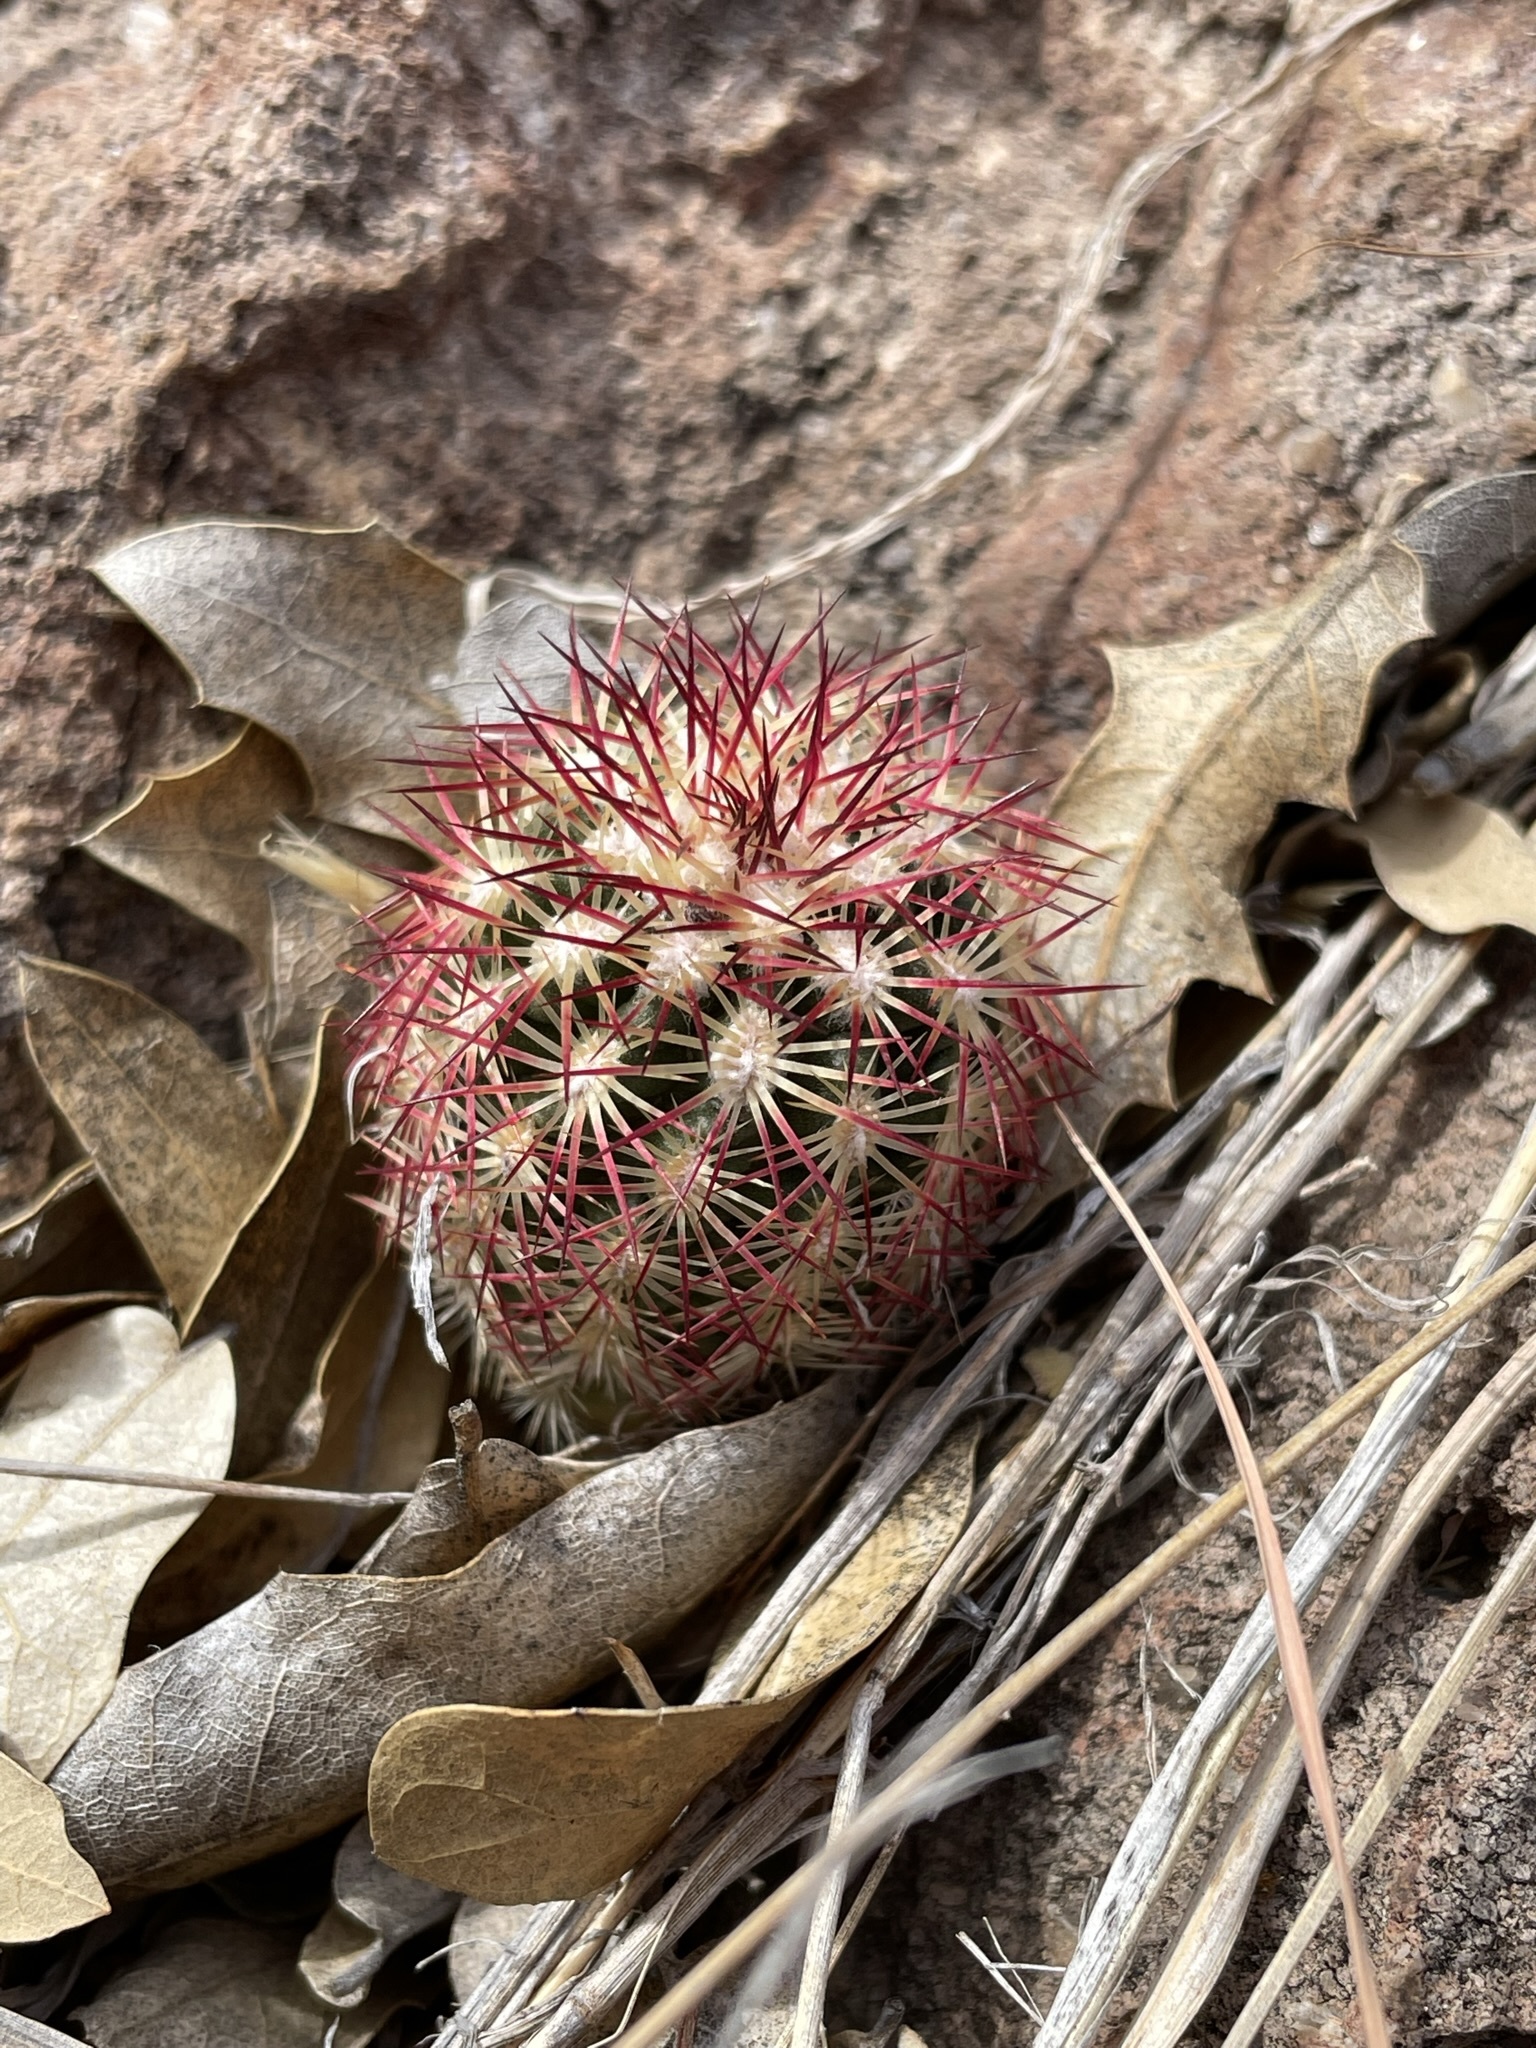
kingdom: Plantae
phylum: Tracheophyta
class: Magnoliopsida
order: Caryophyllales
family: Cactaceae
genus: Echinocereus
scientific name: Echinocereus viridiflorus
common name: Nylon hedgehog cactus
